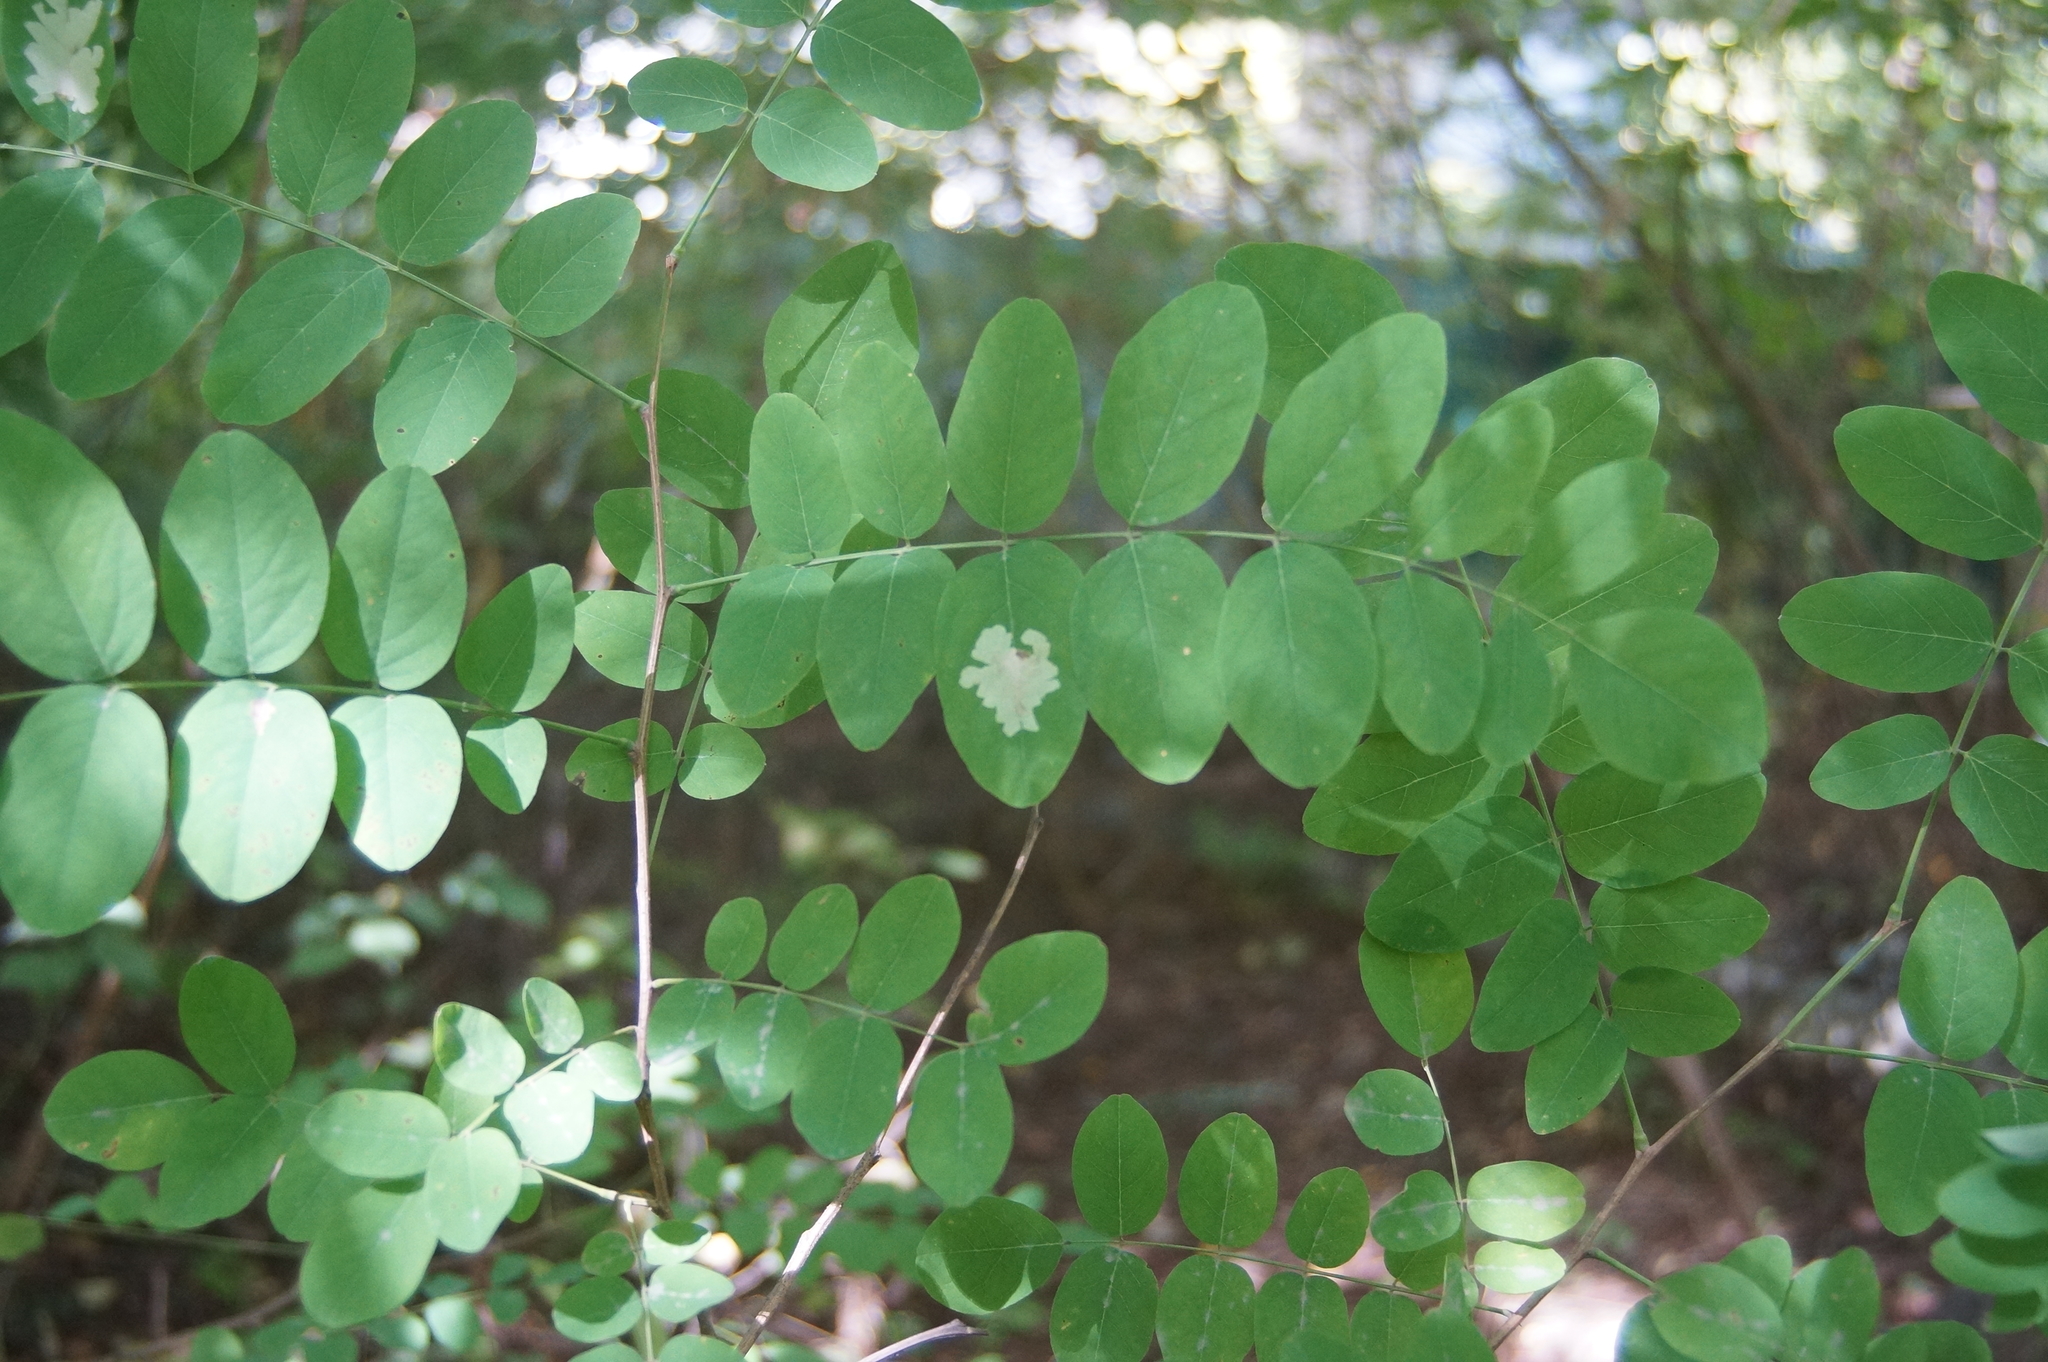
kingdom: Animalia
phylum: Arthropoda
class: Insecta
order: Lepidoptera
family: Gracillariidae
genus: Parectopa
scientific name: Parectopa robiniella
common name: Locust digitate leafminer
